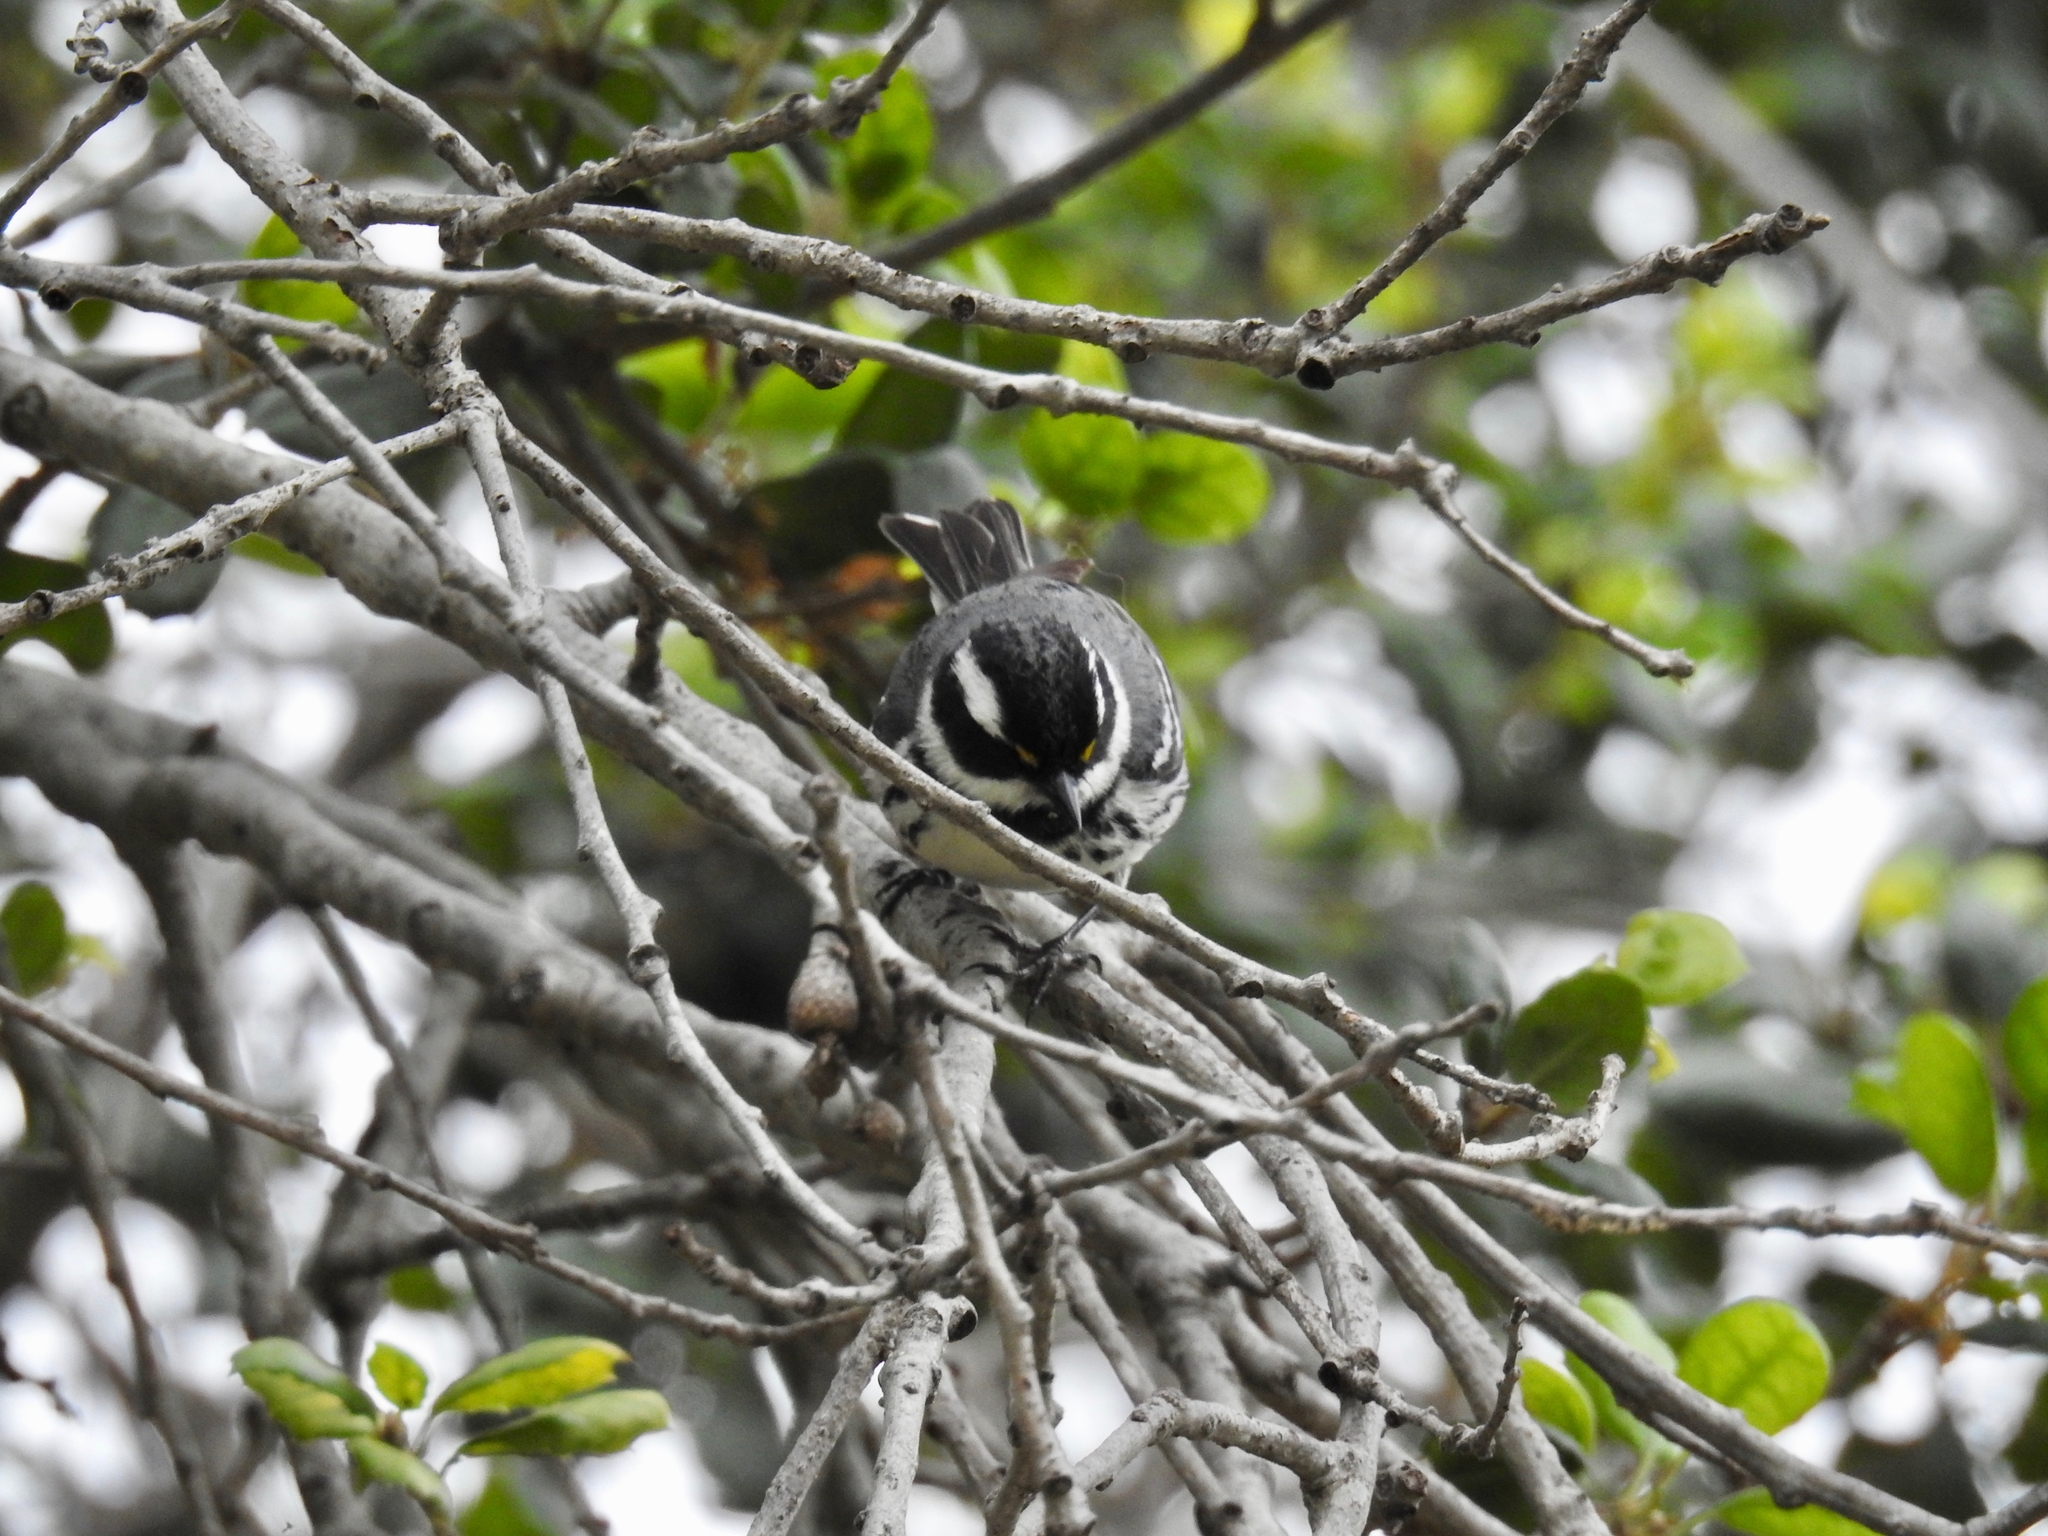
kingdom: Animalia
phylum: Chordata
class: Aves
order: Passeriformes
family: Parulidae
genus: Setophaga
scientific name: Setophaga nigrescens
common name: Black-throated gray warbler
